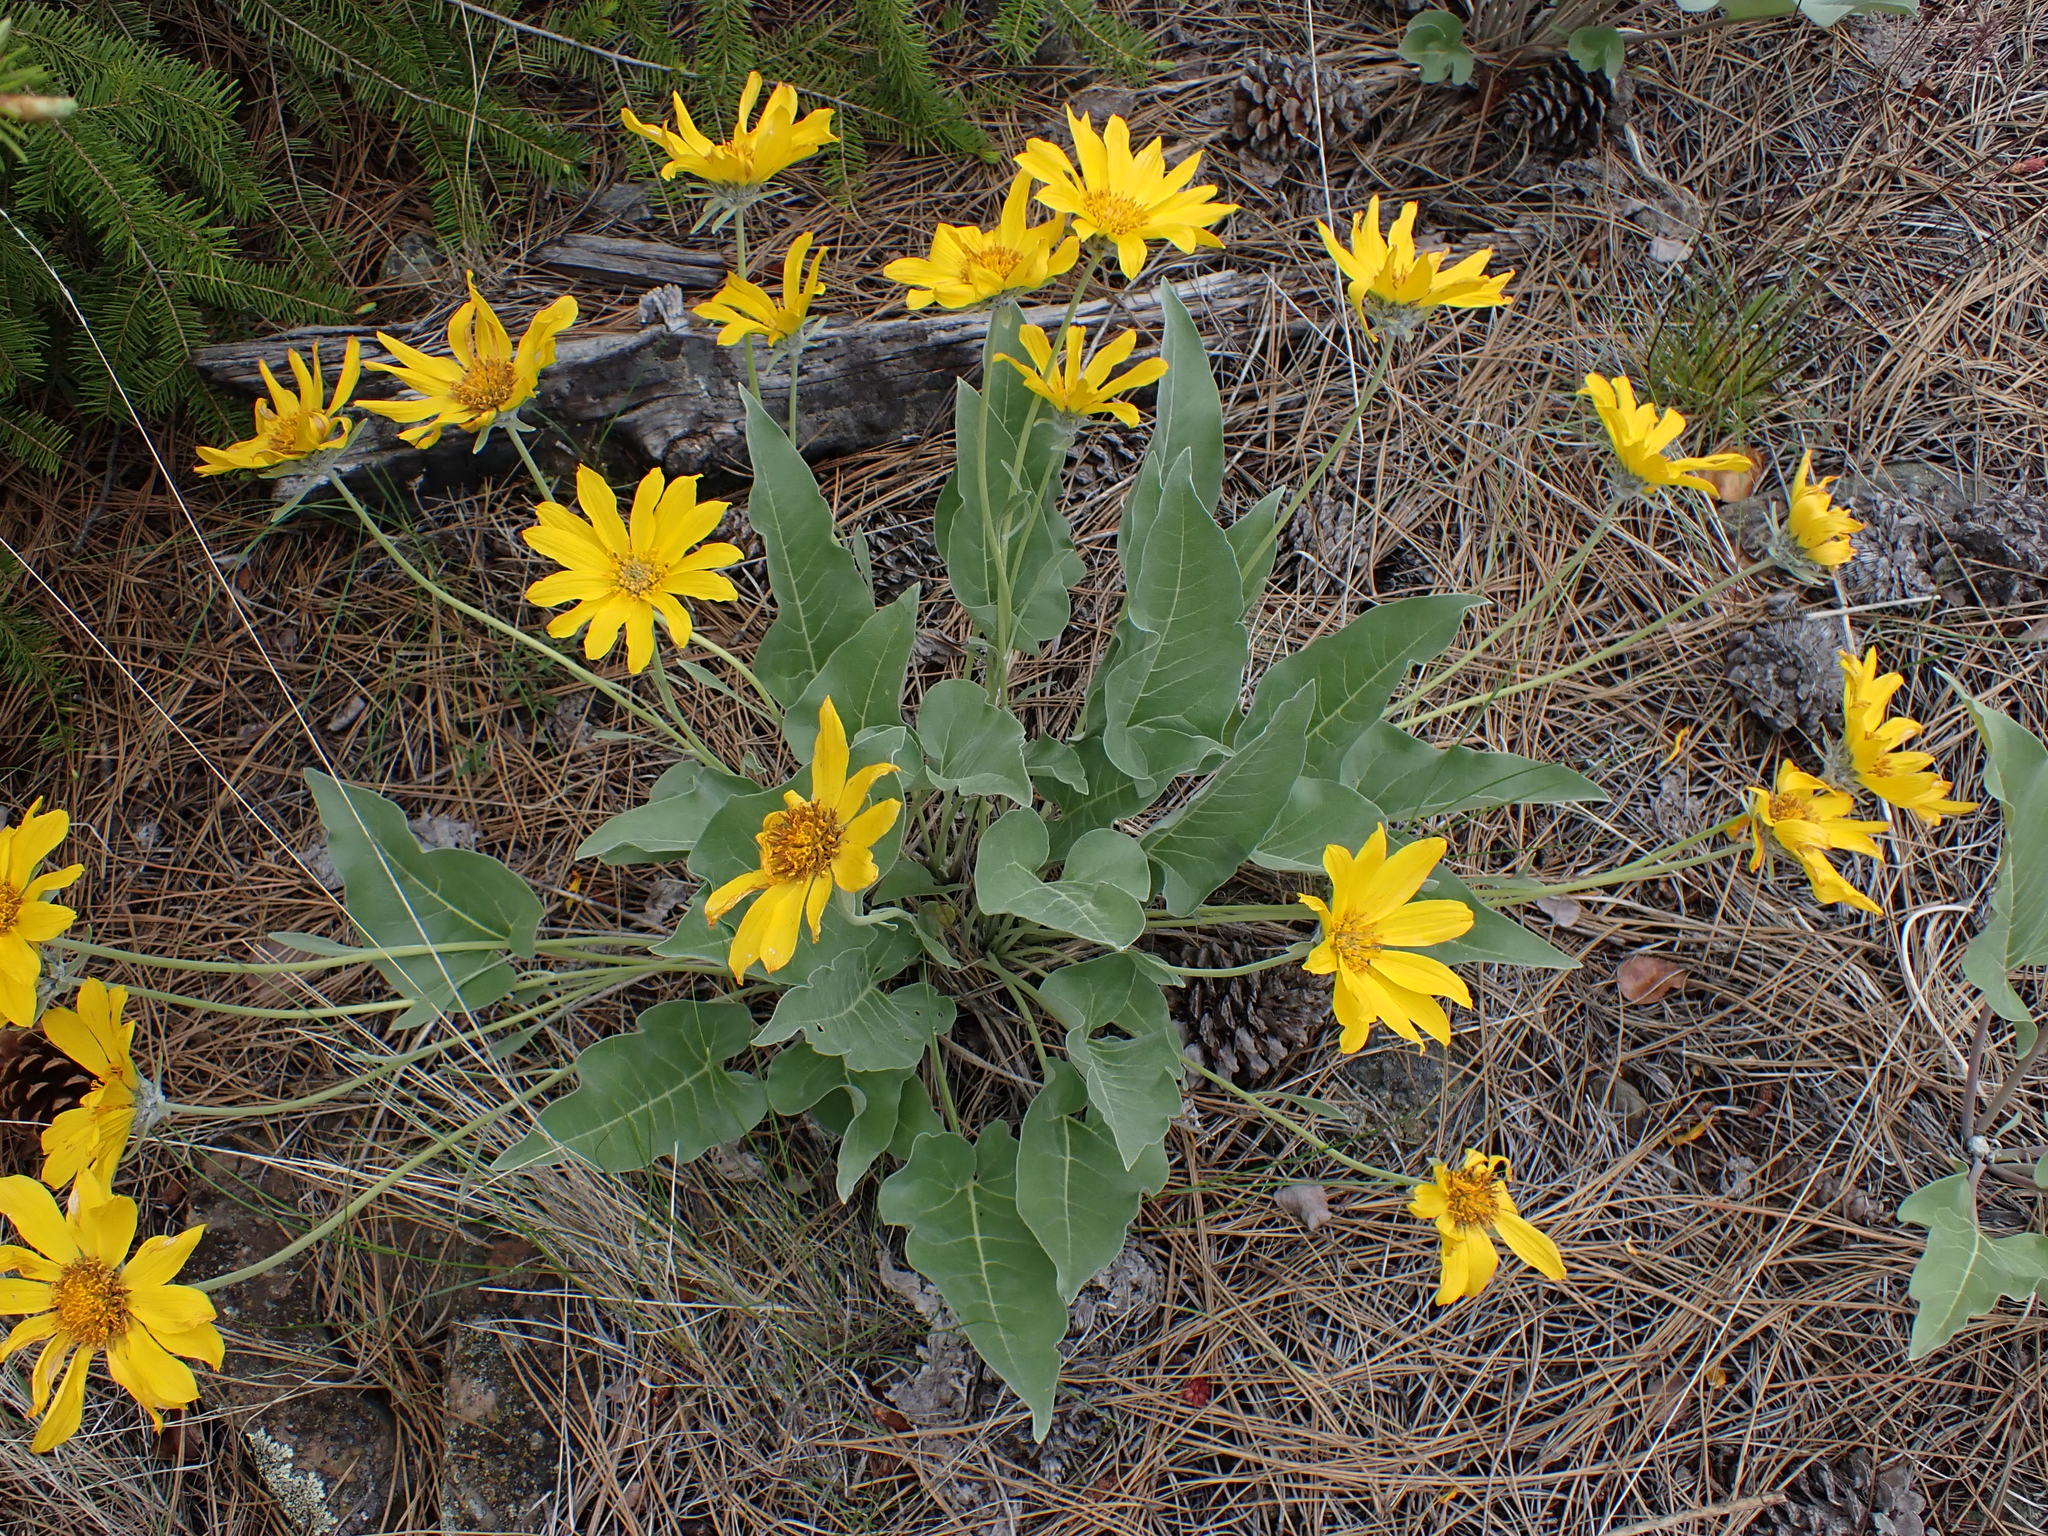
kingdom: Plantae
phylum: Tracheophyta
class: Magnoliopsida
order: Asterales
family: Asteraceae
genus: Wyethia
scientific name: Wyethia sagittata
